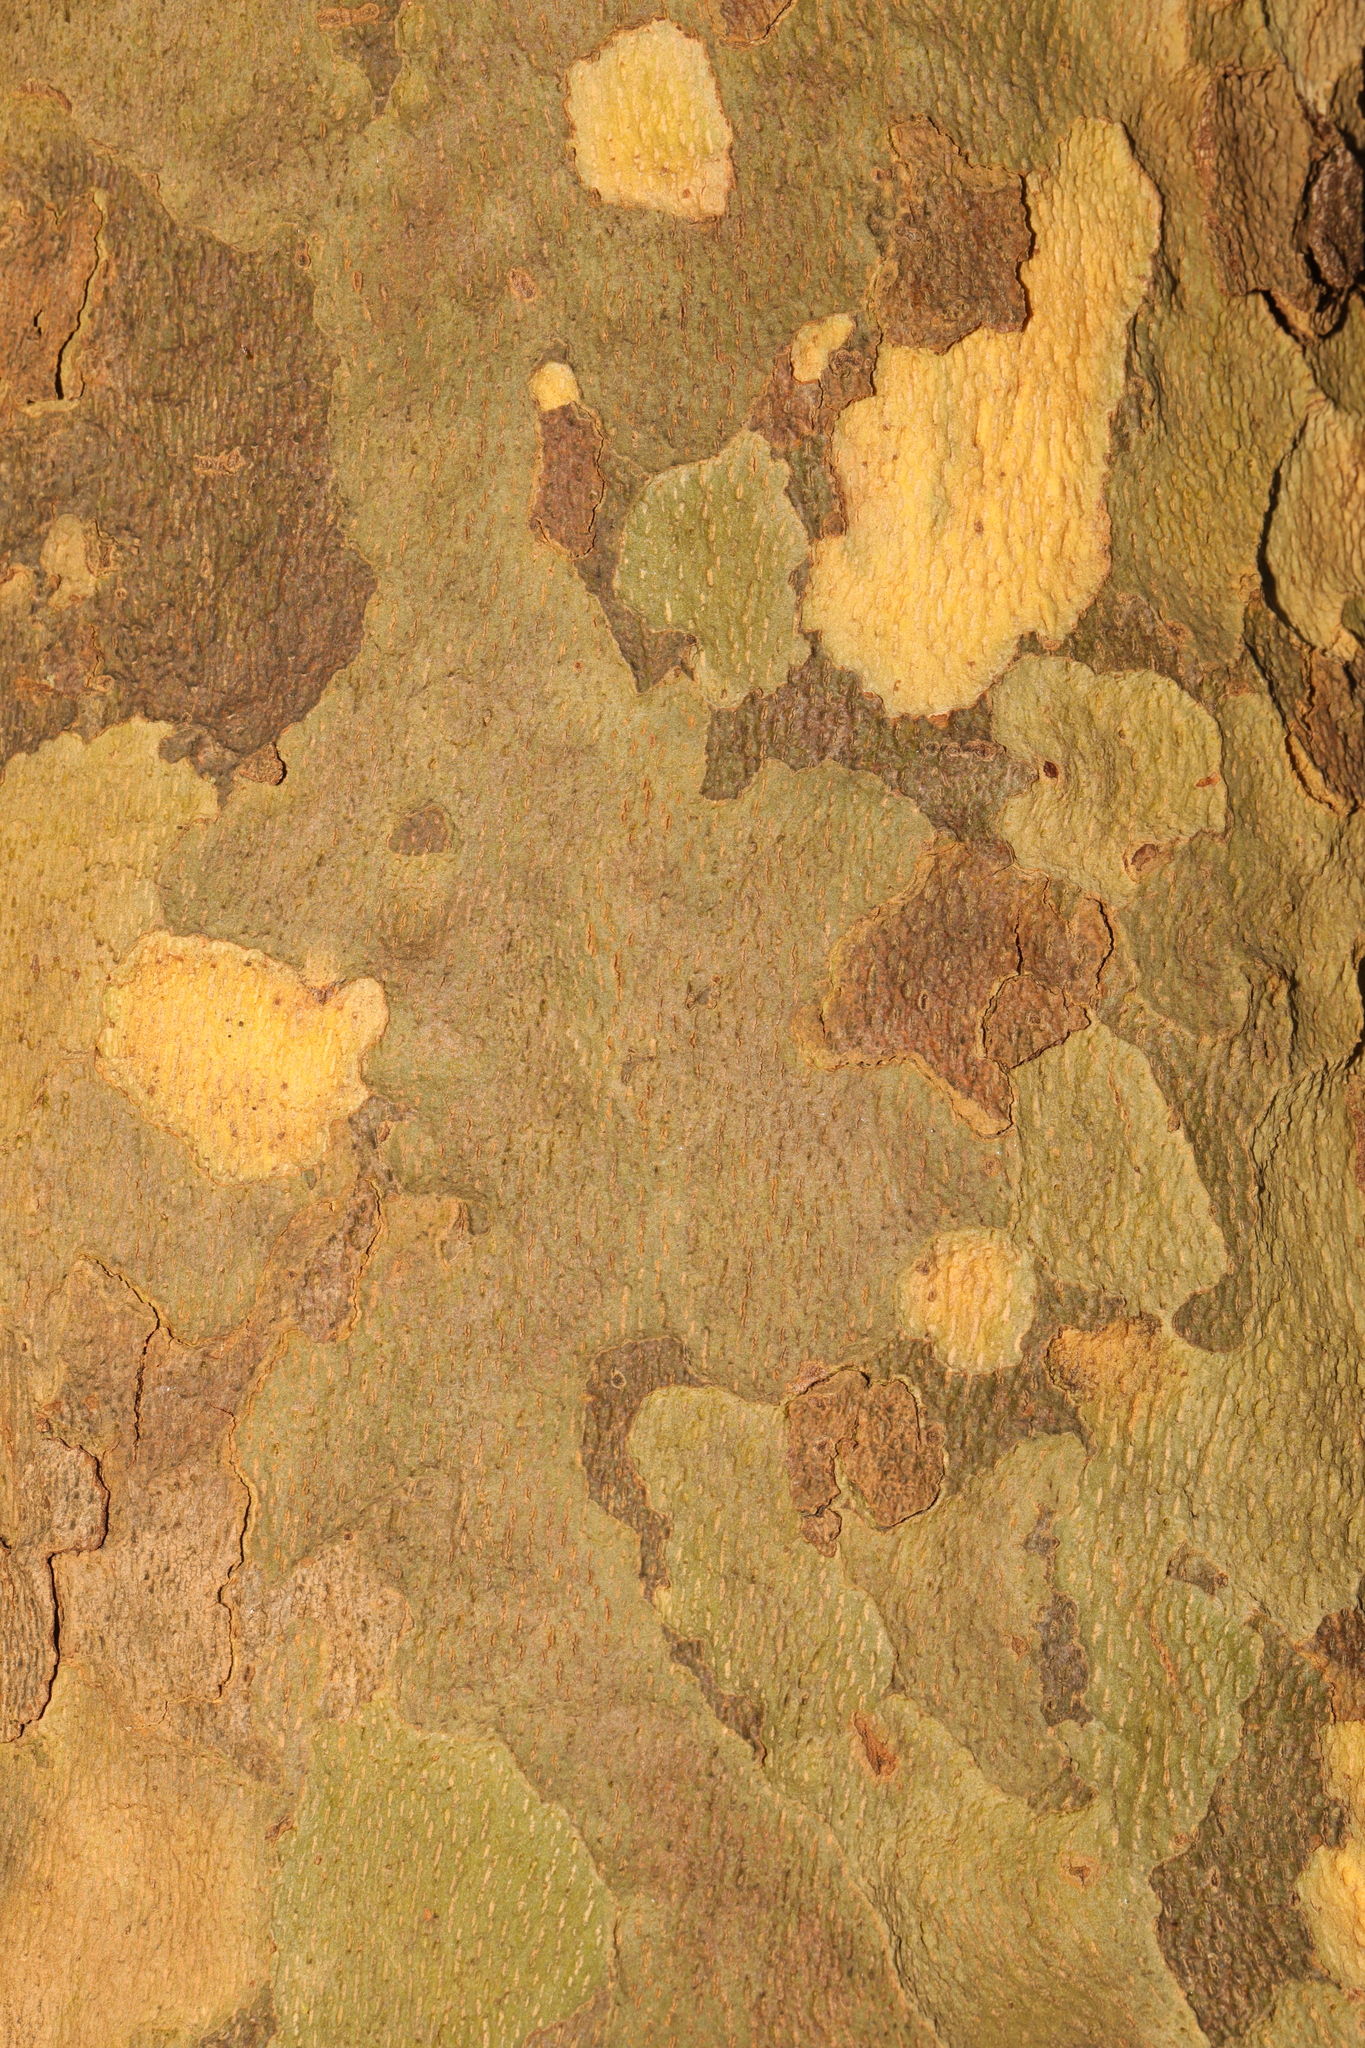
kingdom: Plantae
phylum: Tracheophyta
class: Magnoliopsida
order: Proteales
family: Platanaceae
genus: Platanus
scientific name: Platanus hispanica
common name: London plane
